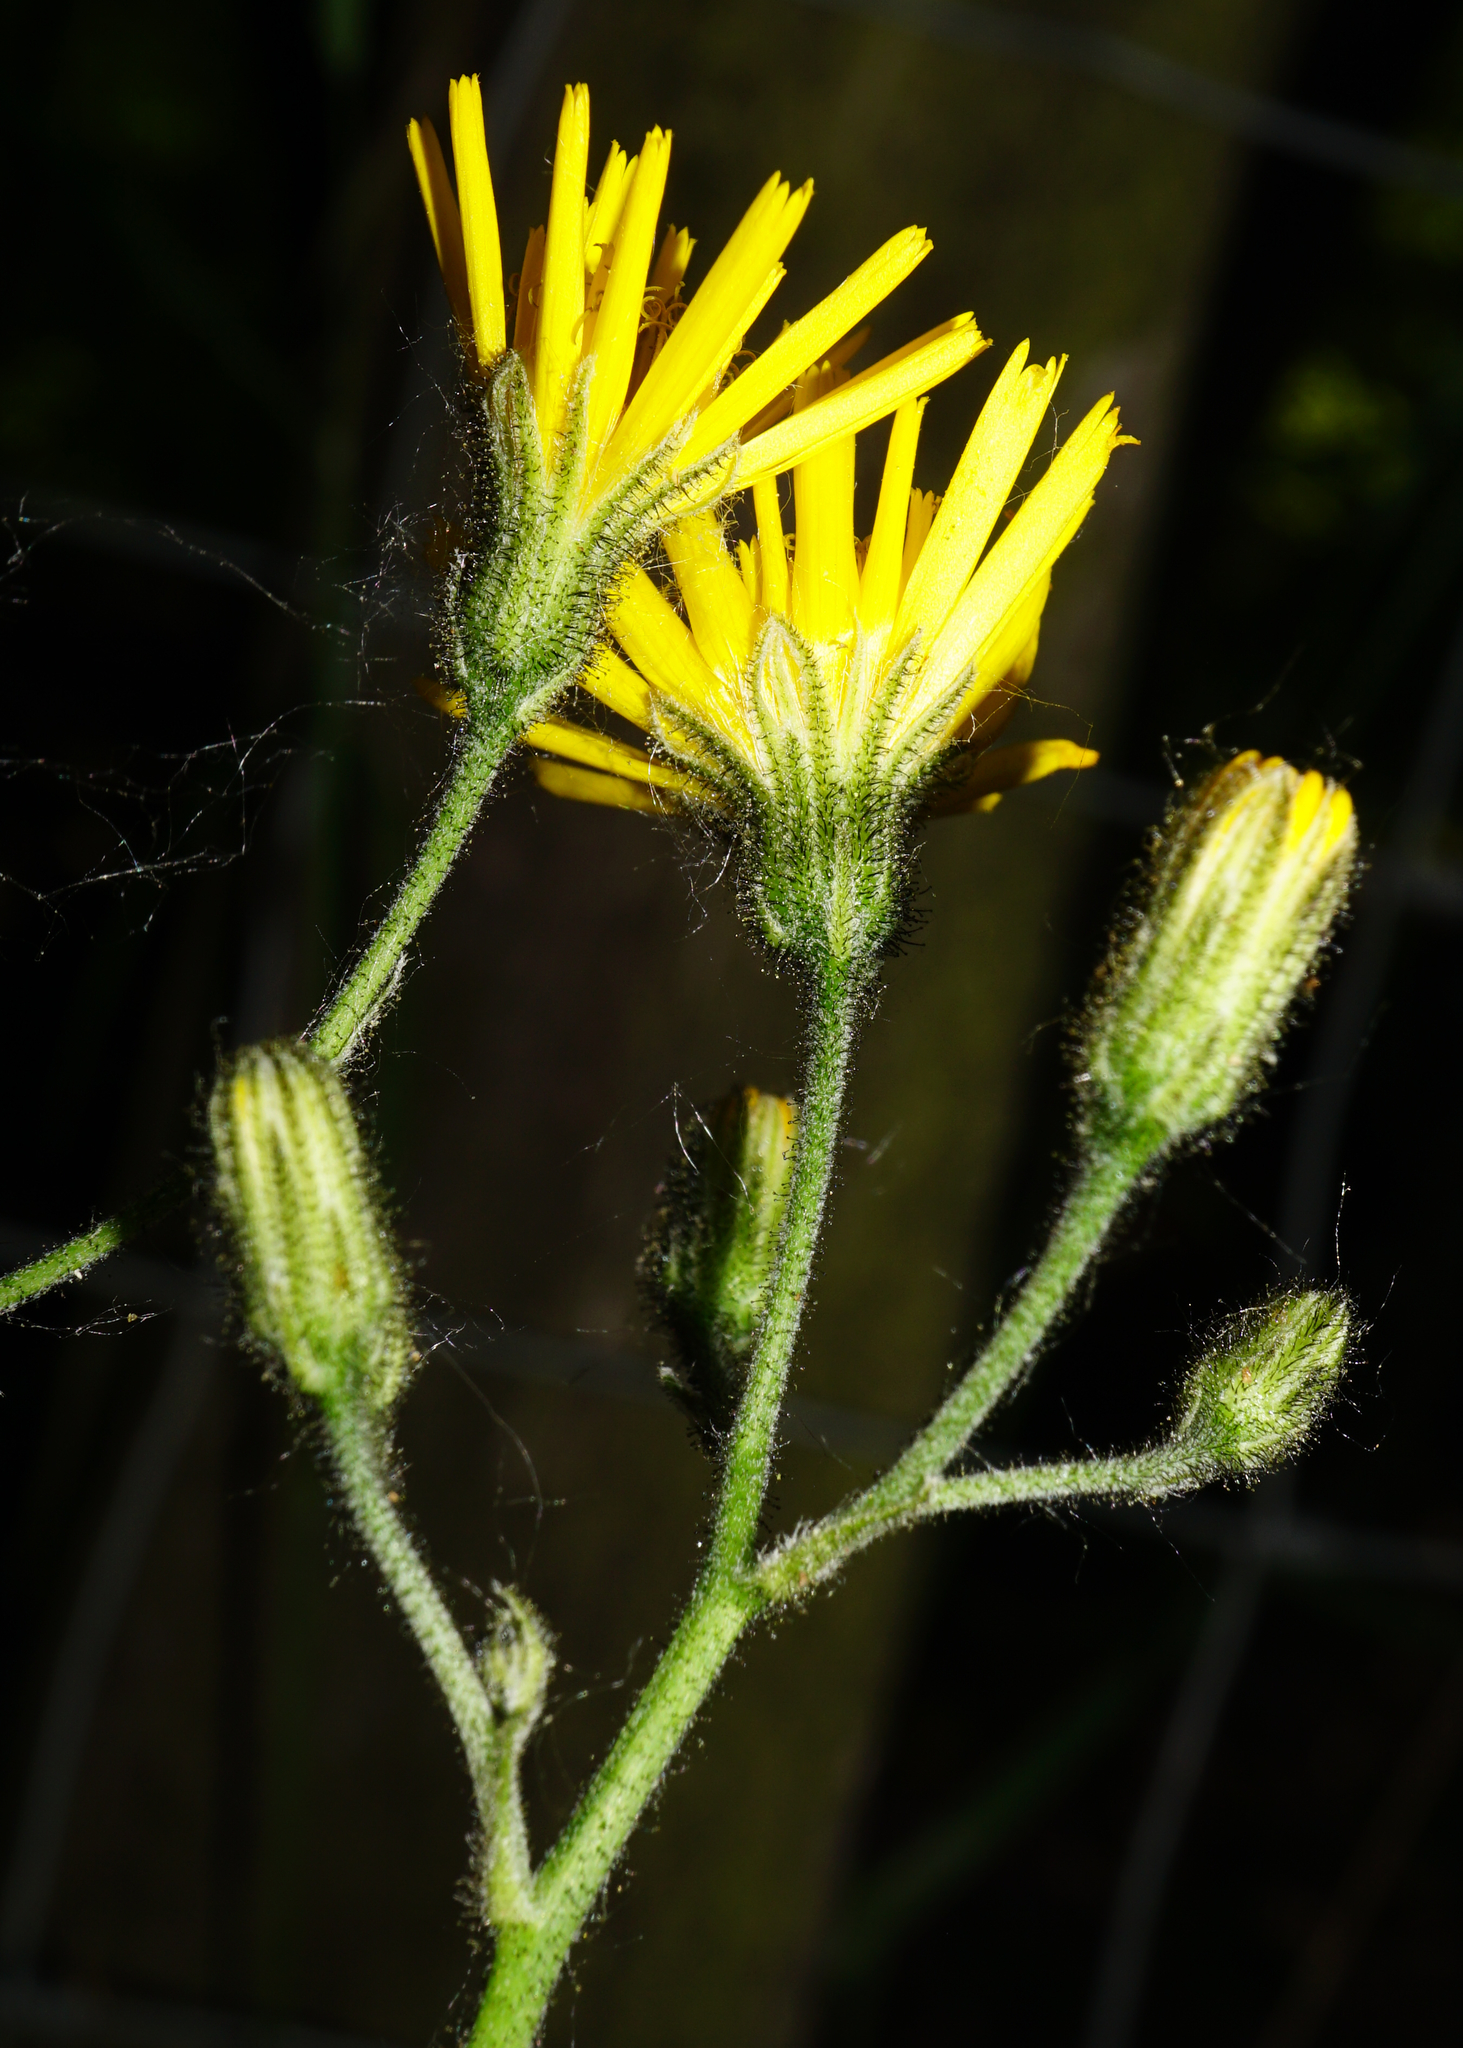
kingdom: Plantae
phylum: Tracheophyta
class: Magnoliopsida
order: Asterales
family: Asteraceae
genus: Hieracium
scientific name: Hieracium murorum
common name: Wall hawkweed
